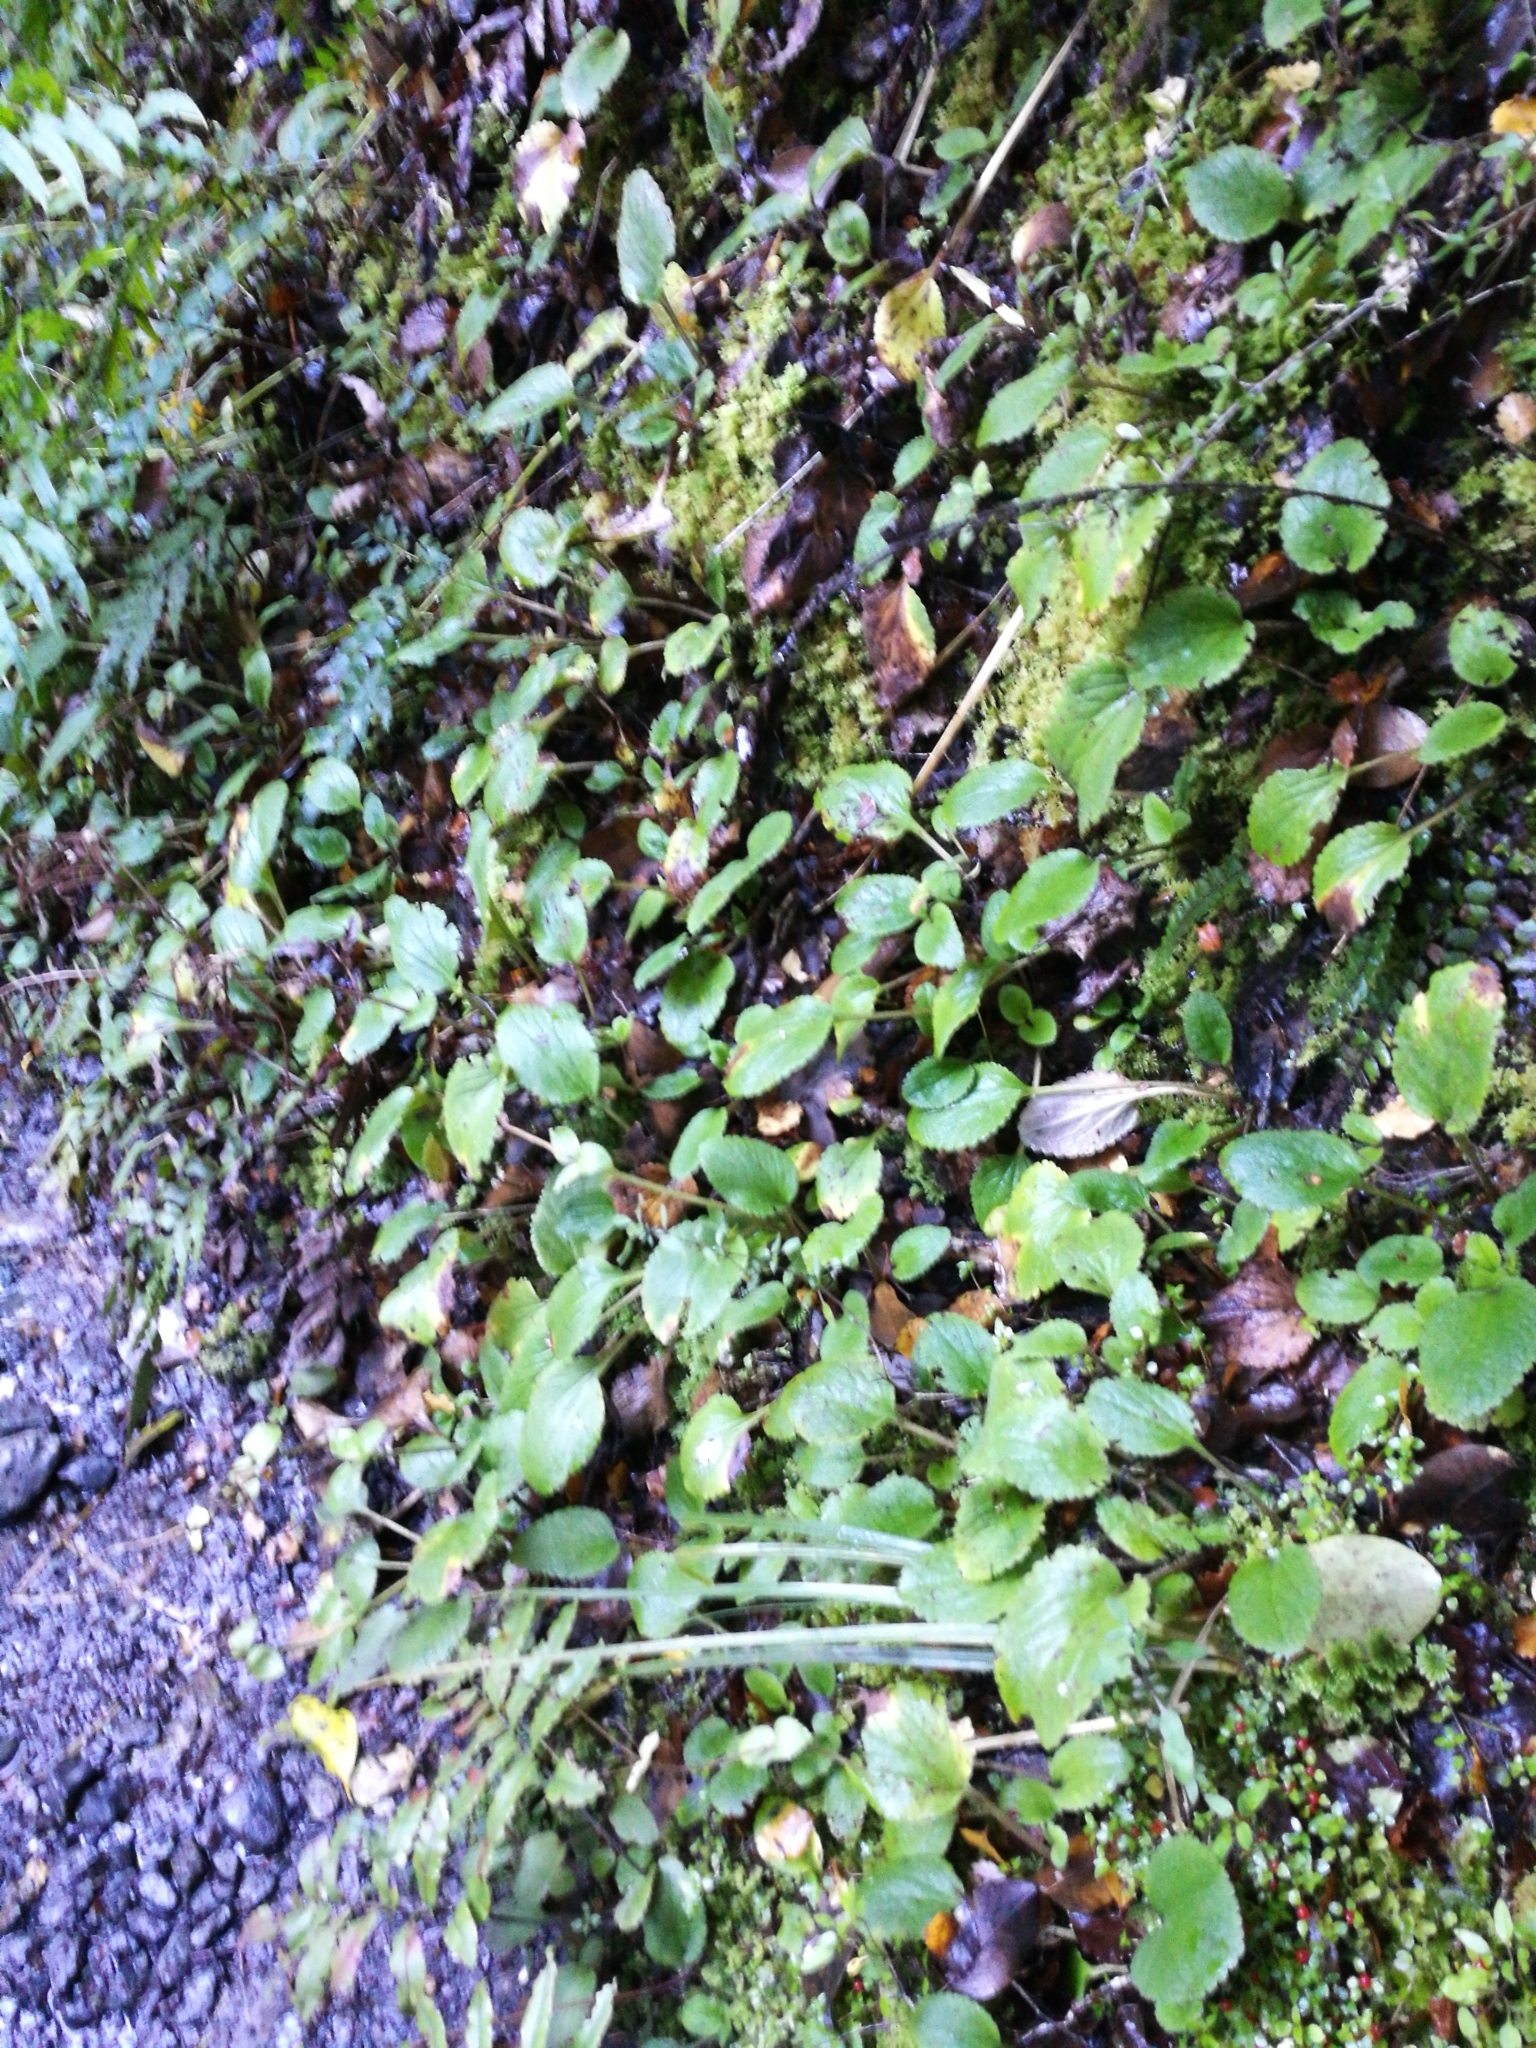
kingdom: Plantae
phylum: Tracheophyta
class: Magnoliopsida
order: Lamiales
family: Plantaginaceae
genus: Ourisia
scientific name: Ourisia
